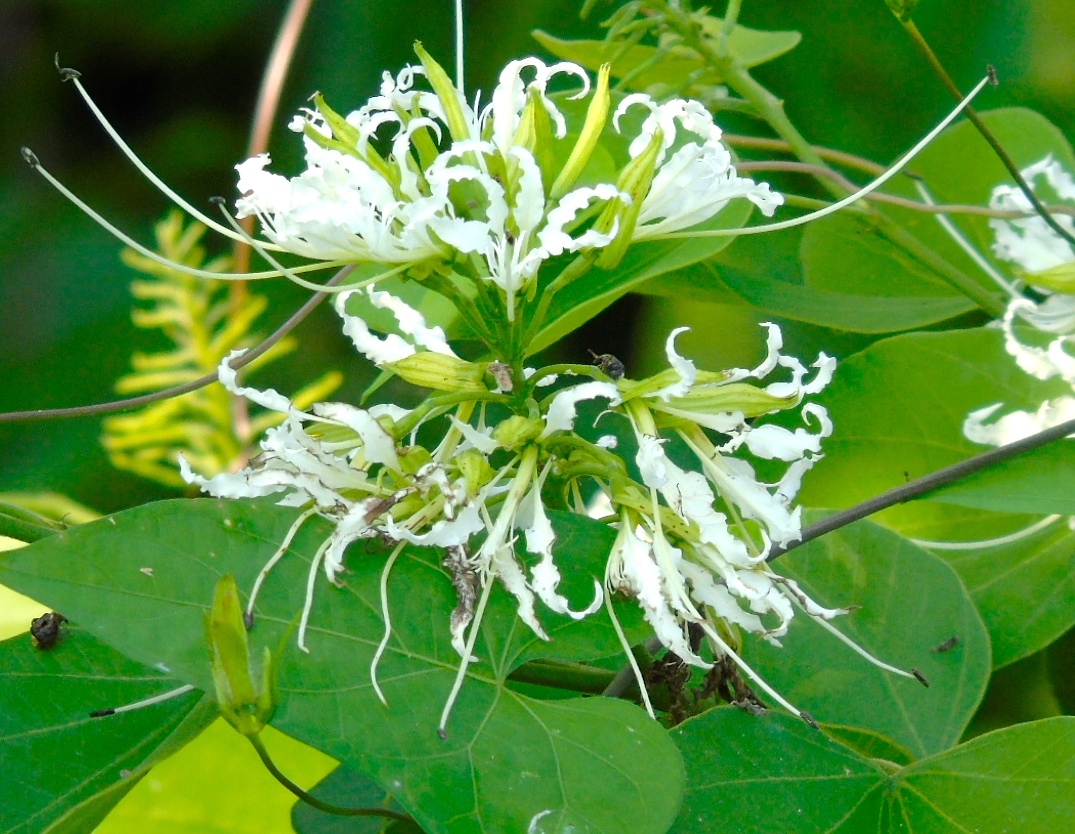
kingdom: Plantae
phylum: Tracheophyta
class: Magnoliopsida
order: Fabales
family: Fabaceae
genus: Bauhinia
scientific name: Bauhinia divaricata
